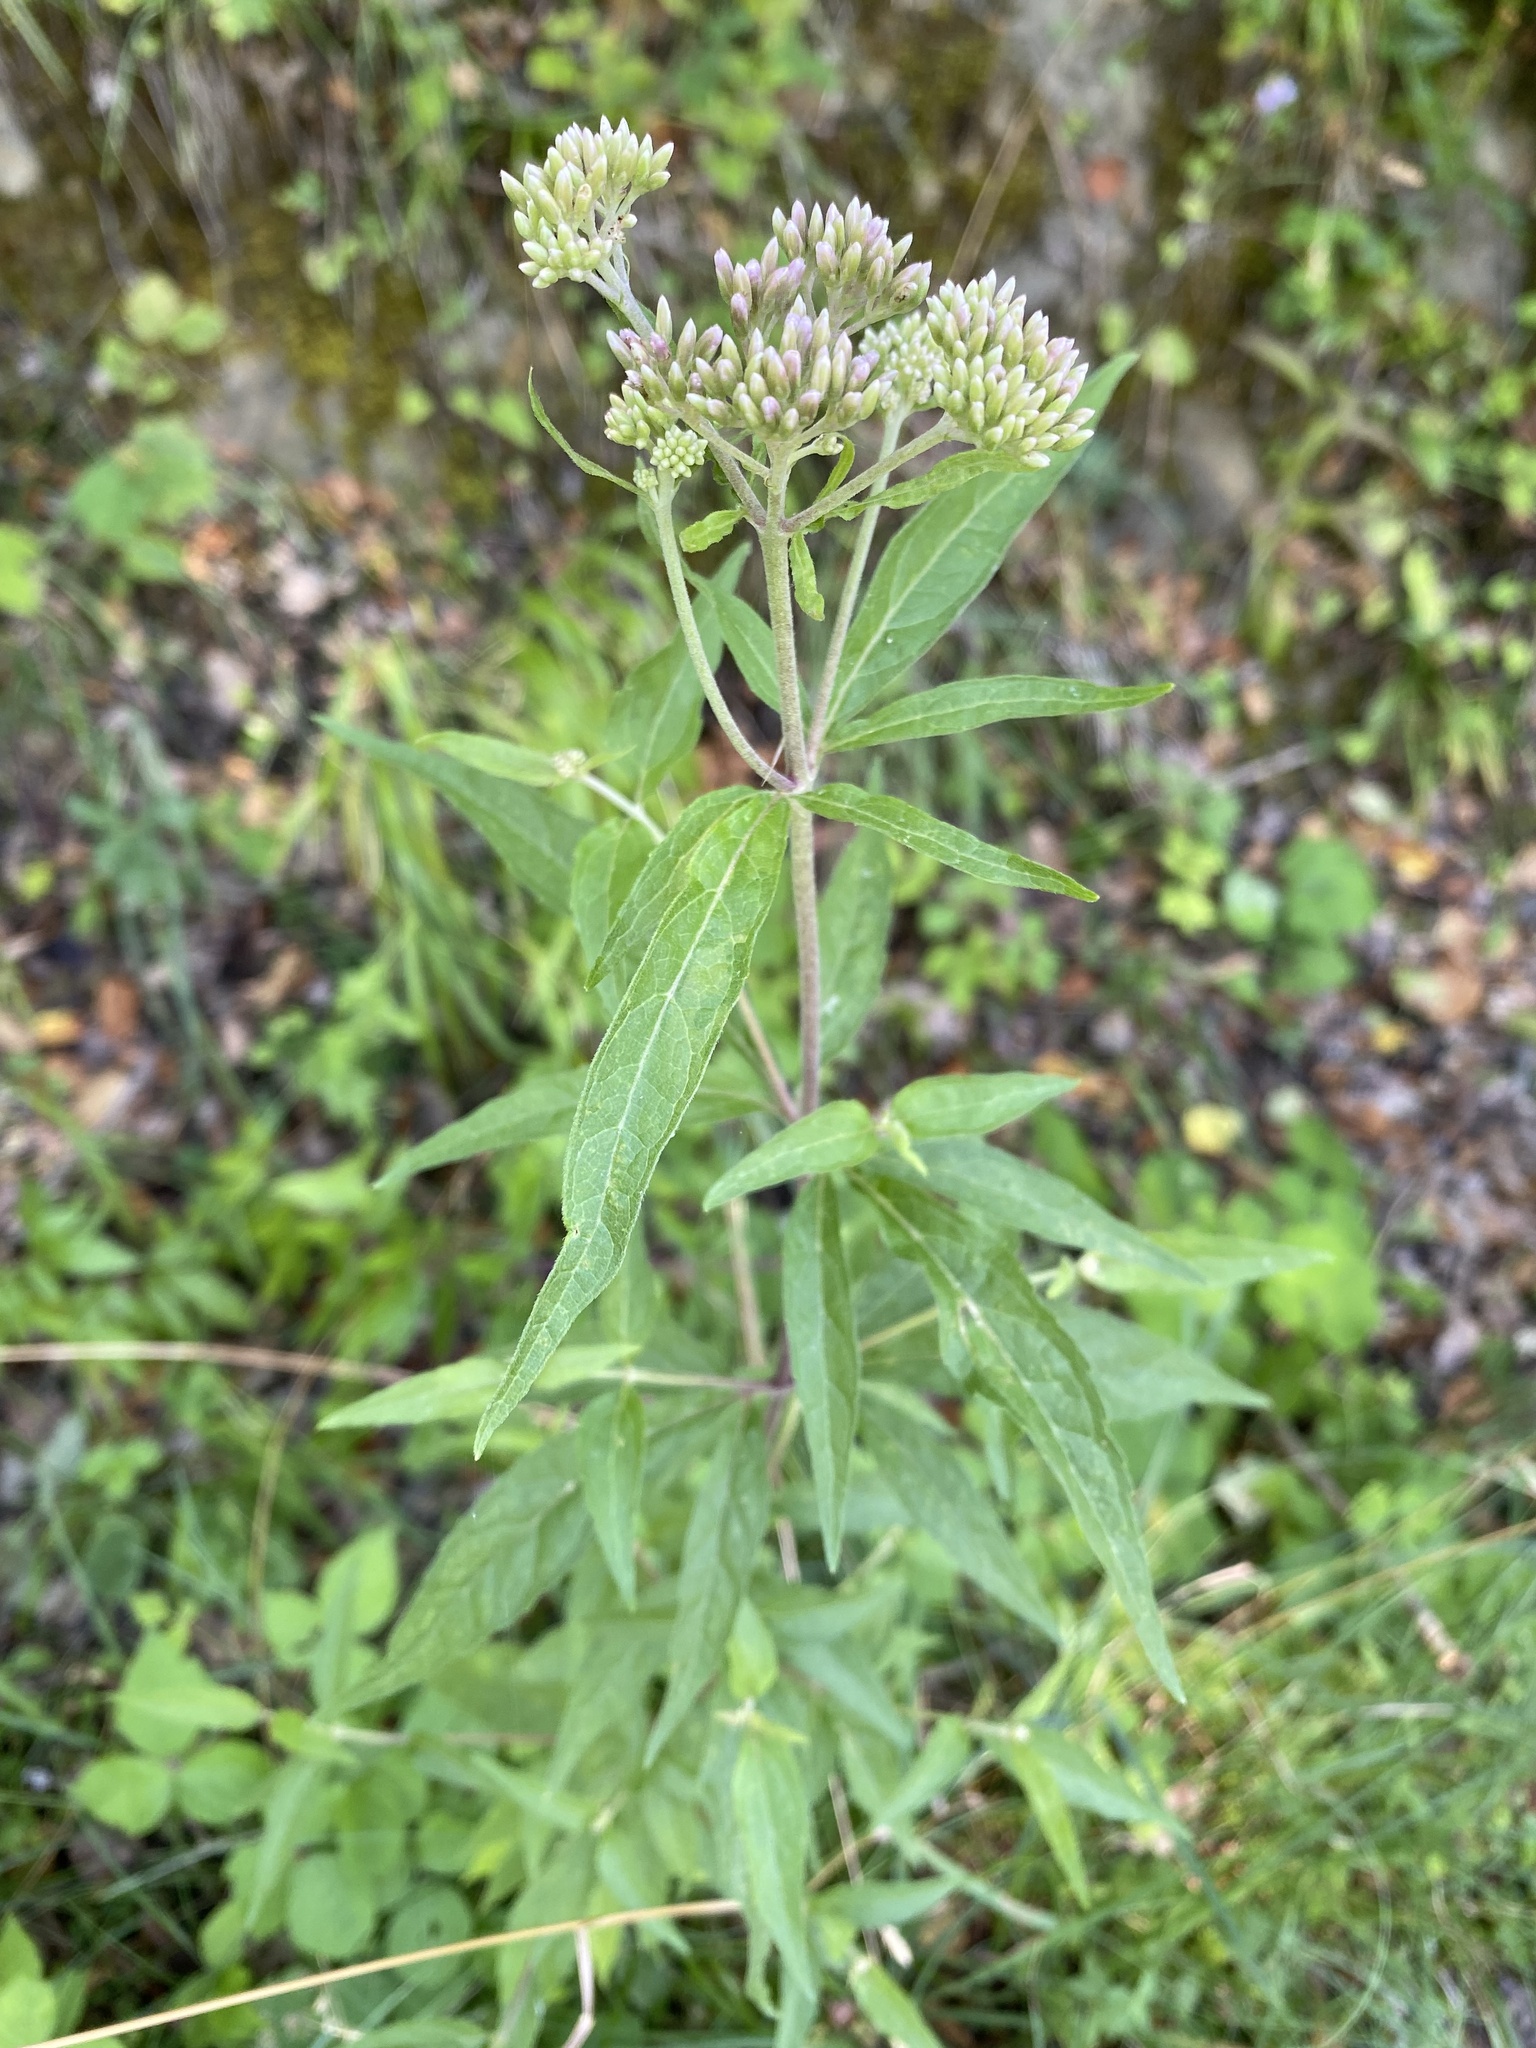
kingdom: Plantae
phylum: Tracheophyta
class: Magnoliopsida
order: Asterales
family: Asteraceae
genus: Eupatorium
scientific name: Eupatorium cannabinum
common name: Hemp-agrimony
